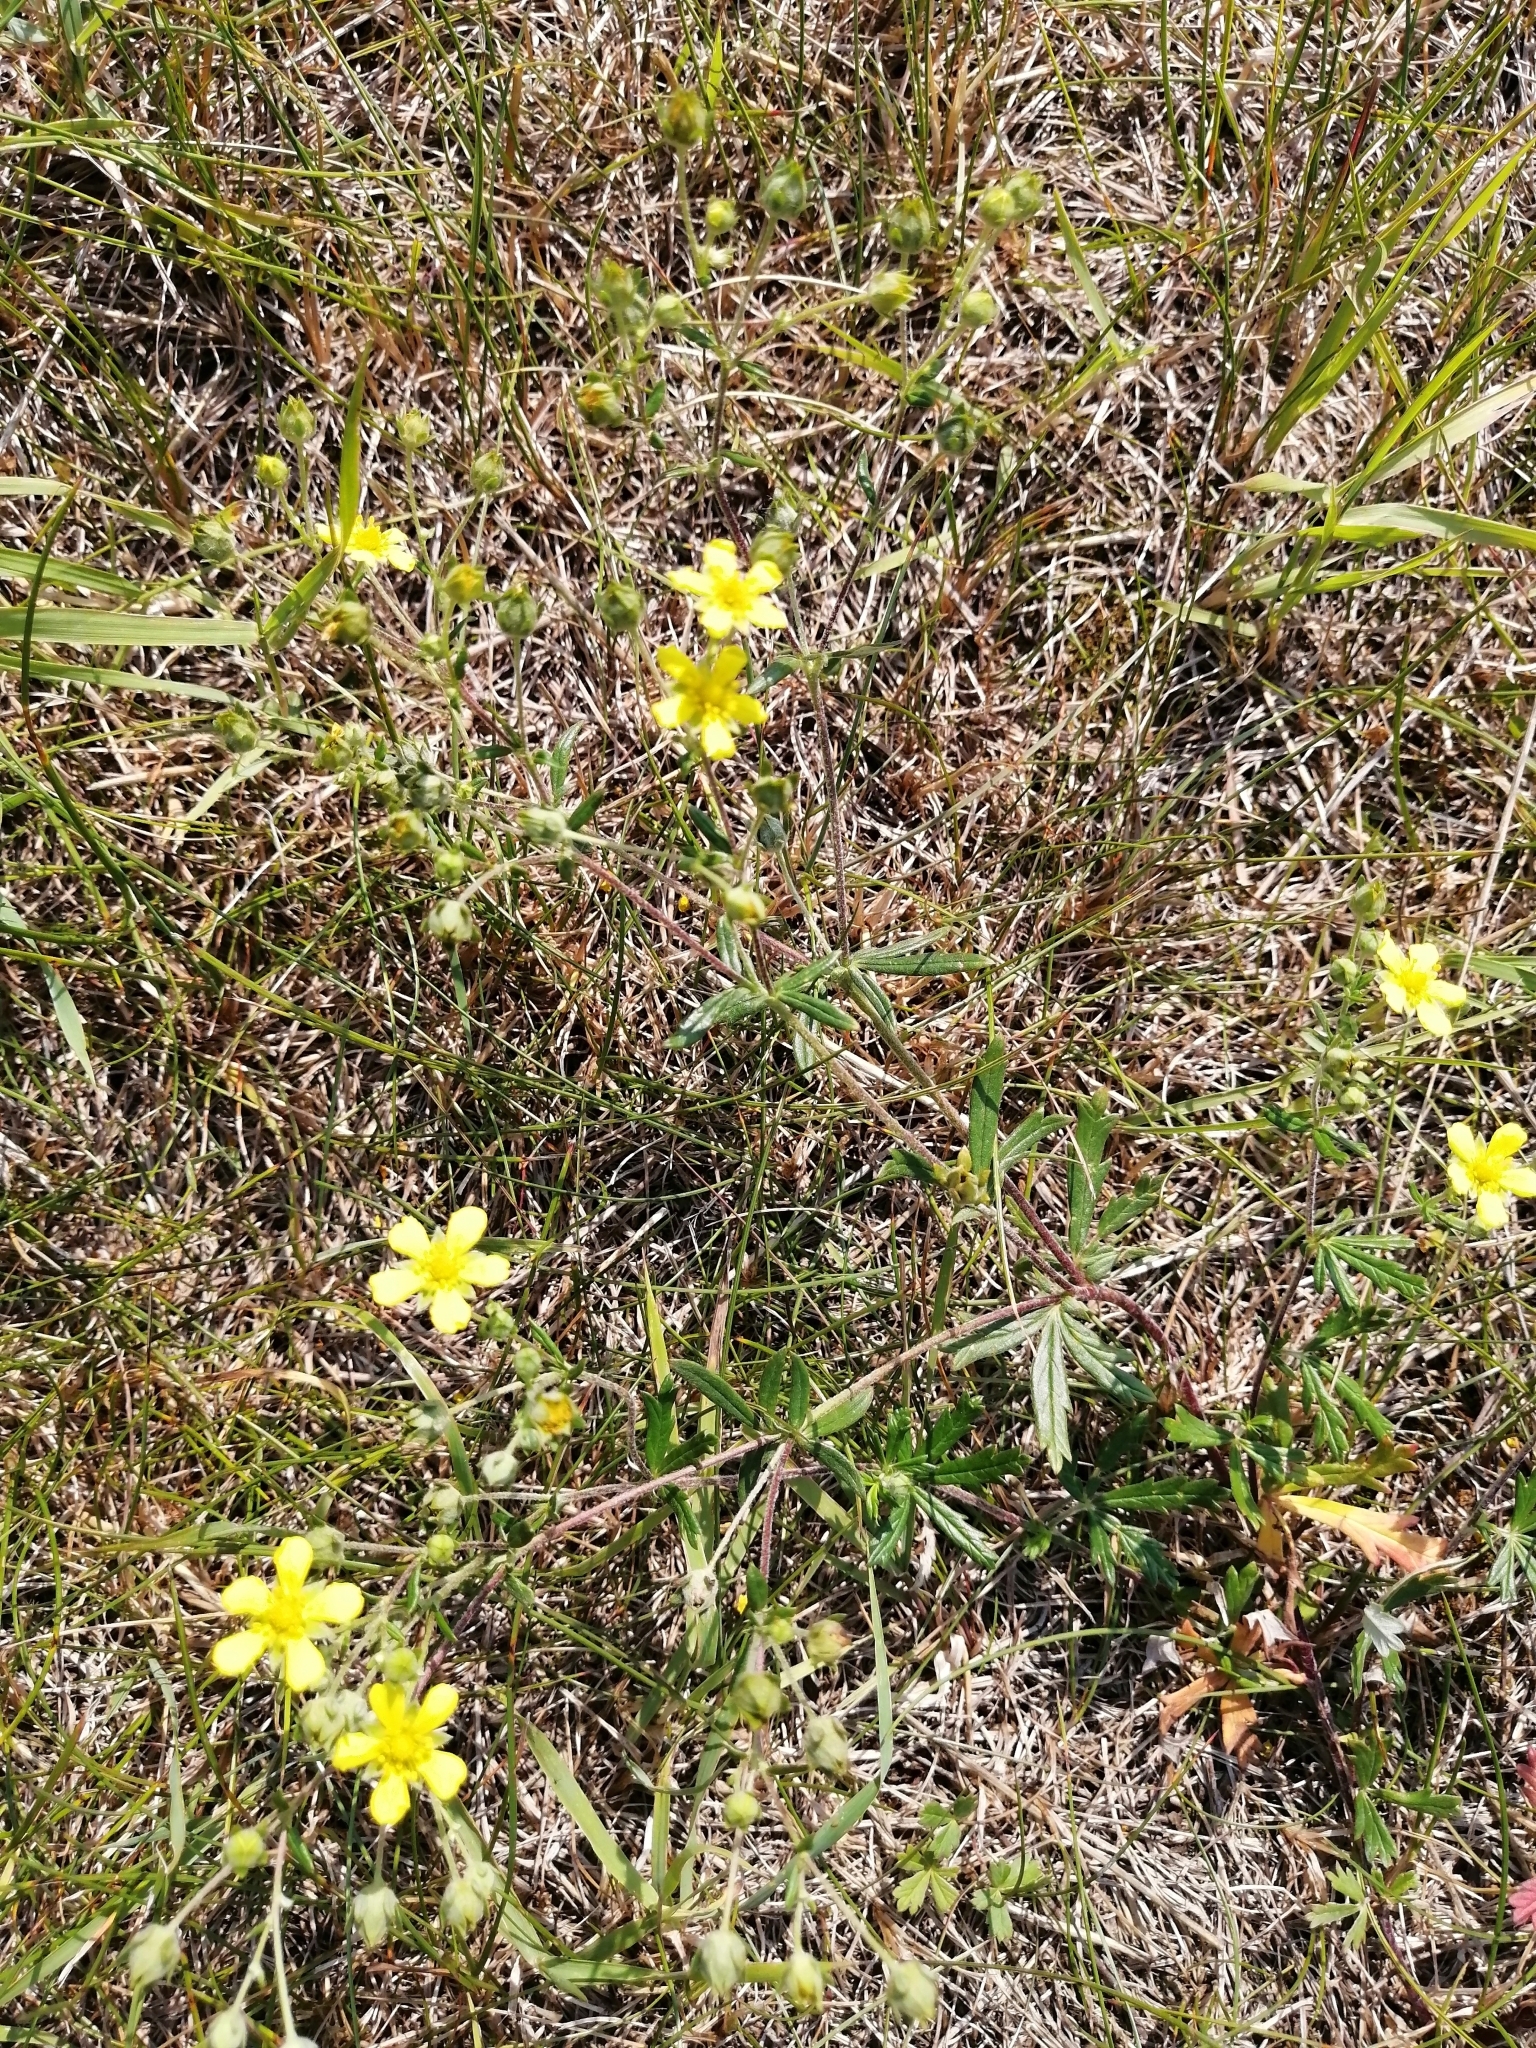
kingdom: Plantae
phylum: Tracheophyta
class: Magnoliopsida
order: Rosales
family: Rosaceae
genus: Potentilla
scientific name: Potentilla argentea
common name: Hoary cinquefoil
